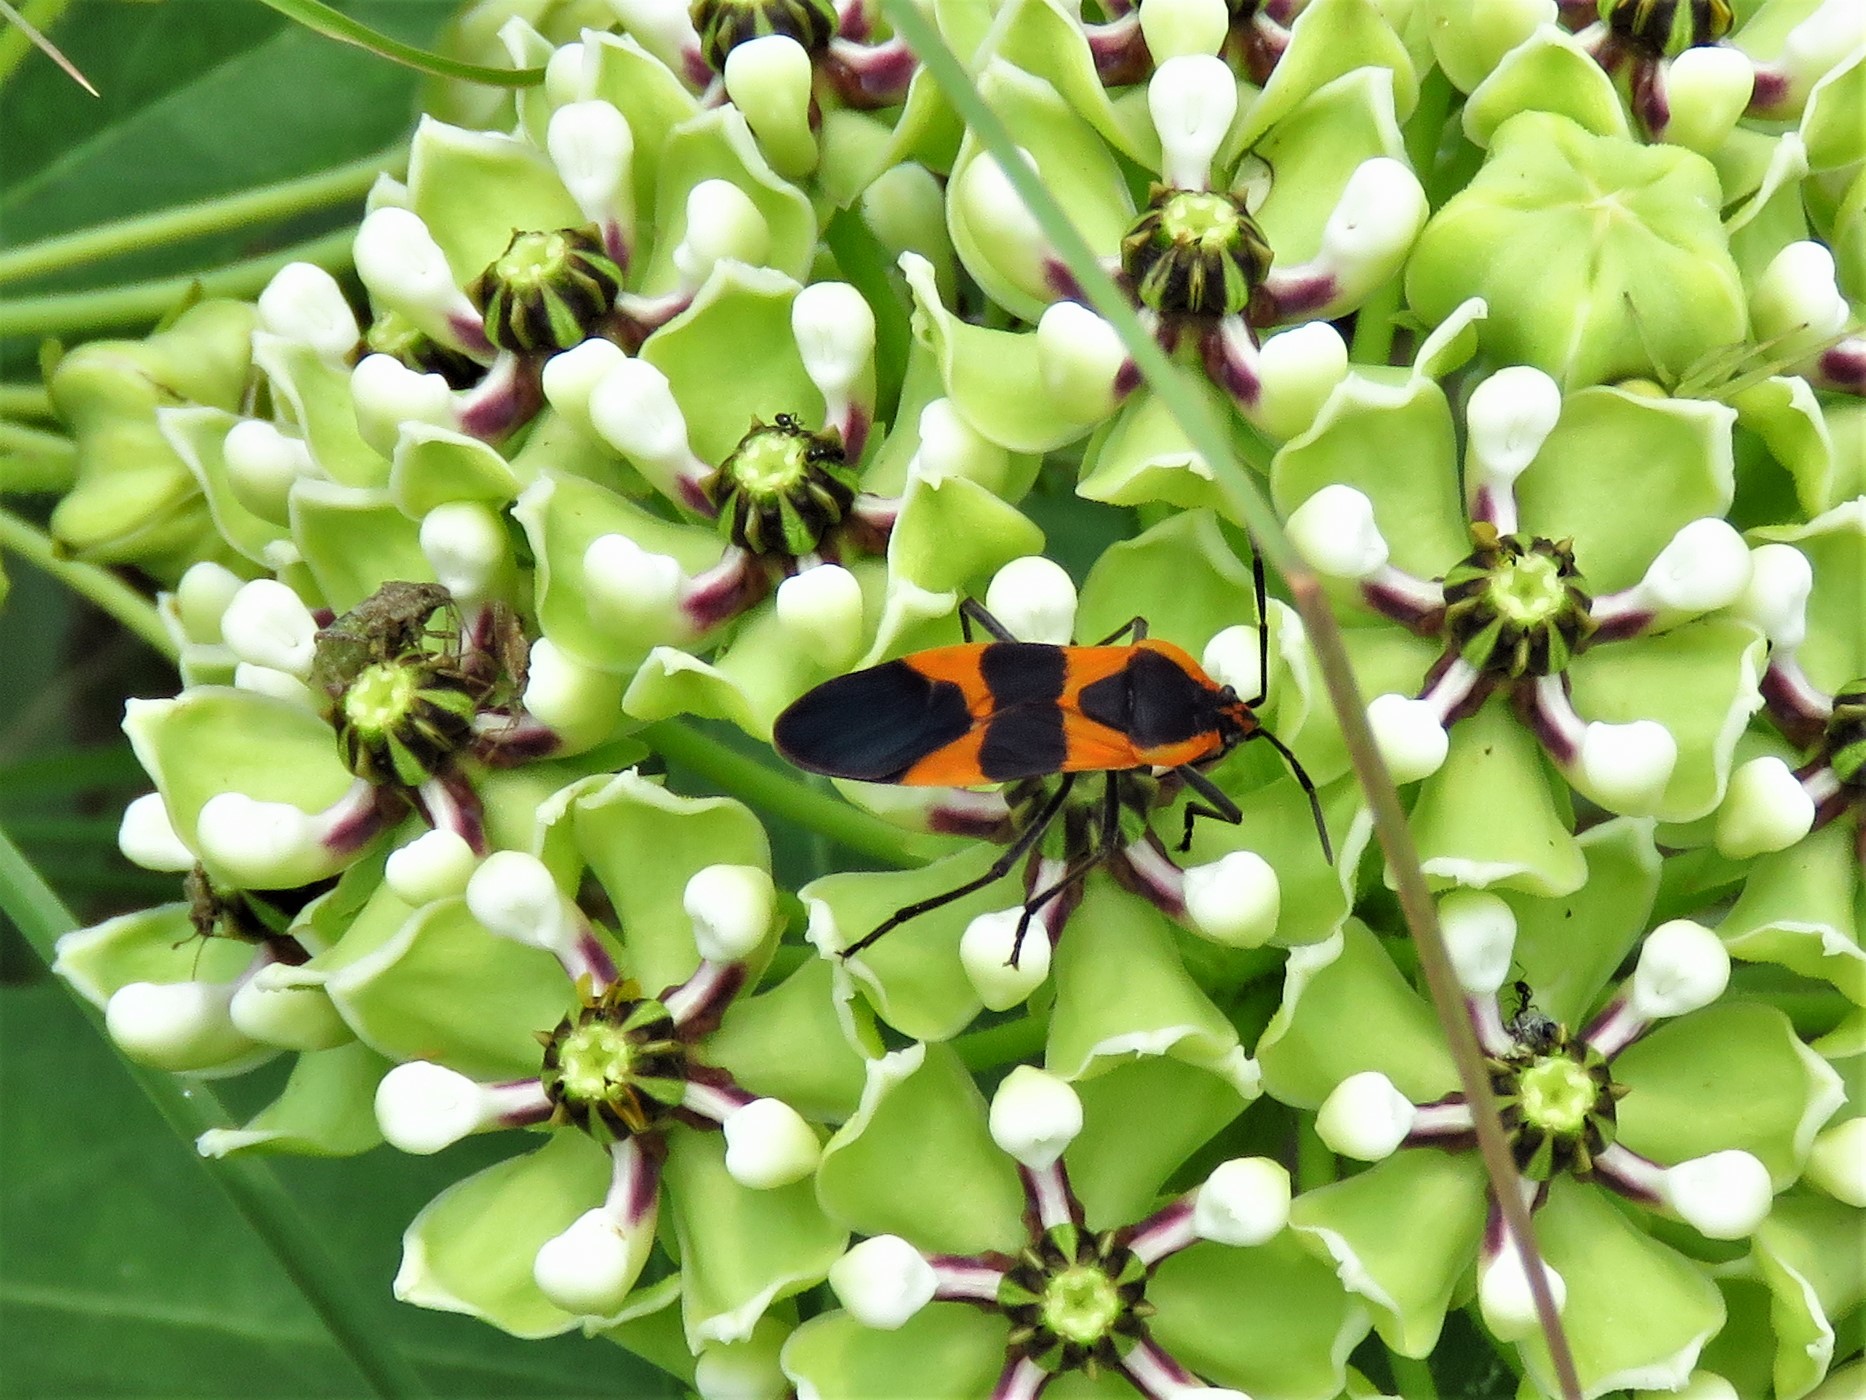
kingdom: Animalia
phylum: Arthropoda
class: Insecta
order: Hemiptera
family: Lygaeidae
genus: Oncopeltus
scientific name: Oncopeltus fasciatus
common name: Large milkweed bug
